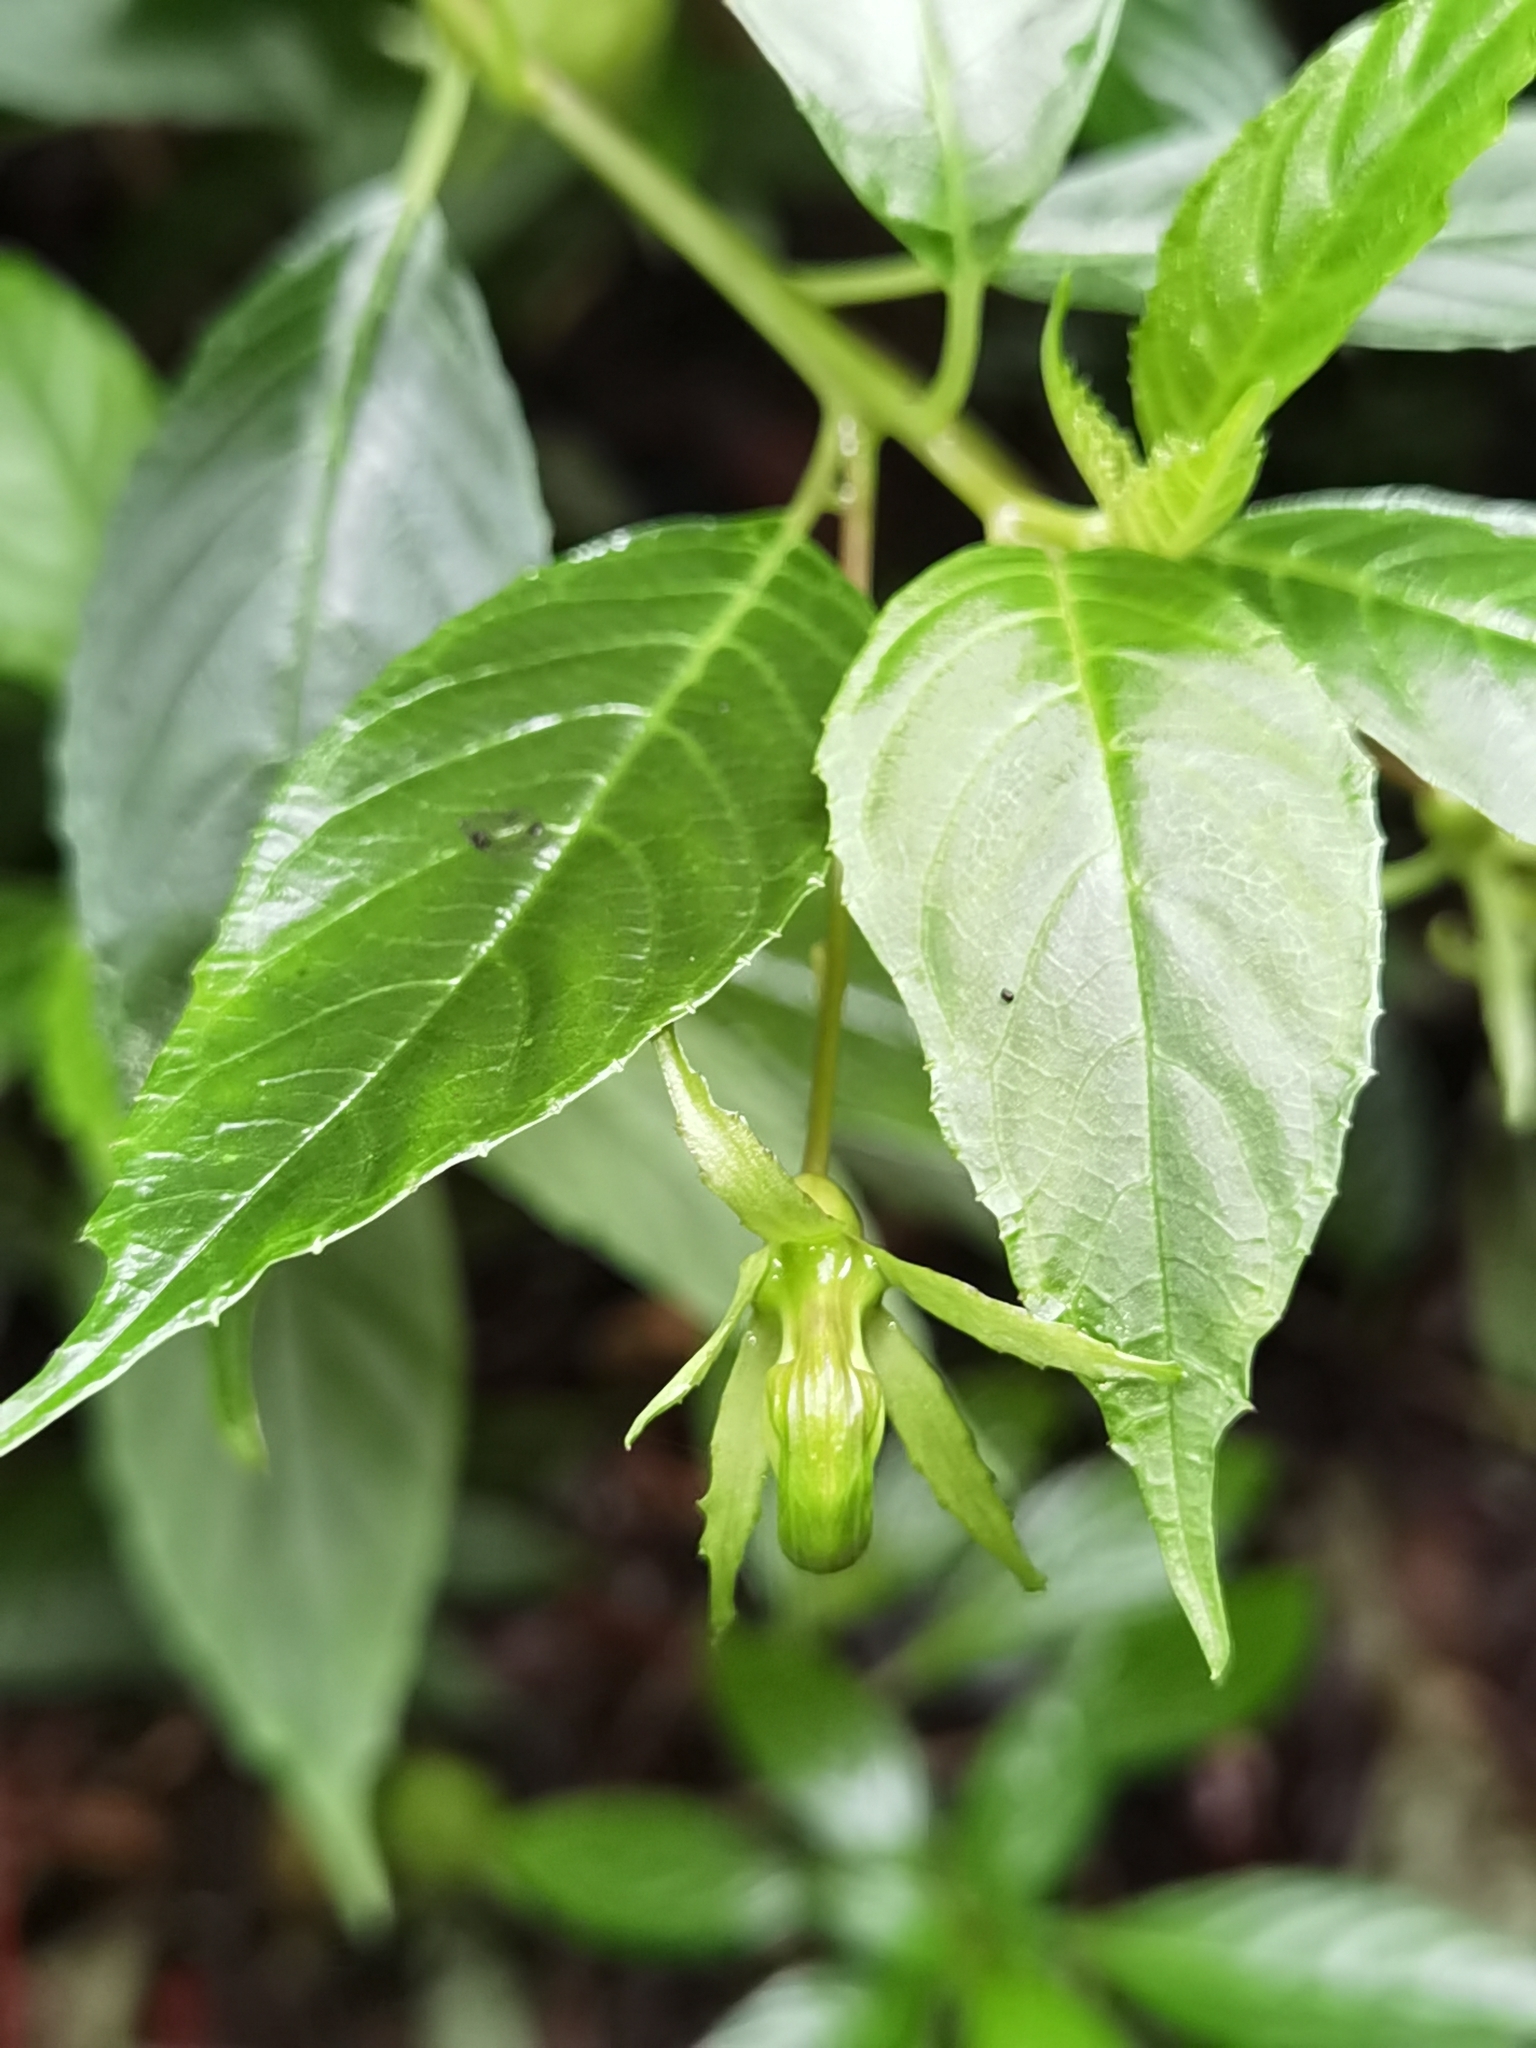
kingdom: Plantae
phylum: Tracheophyta
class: Magnoliopsida
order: Asterales
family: Campanulaceae
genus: Burmeistera
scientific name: Burmeistera vulgaris
